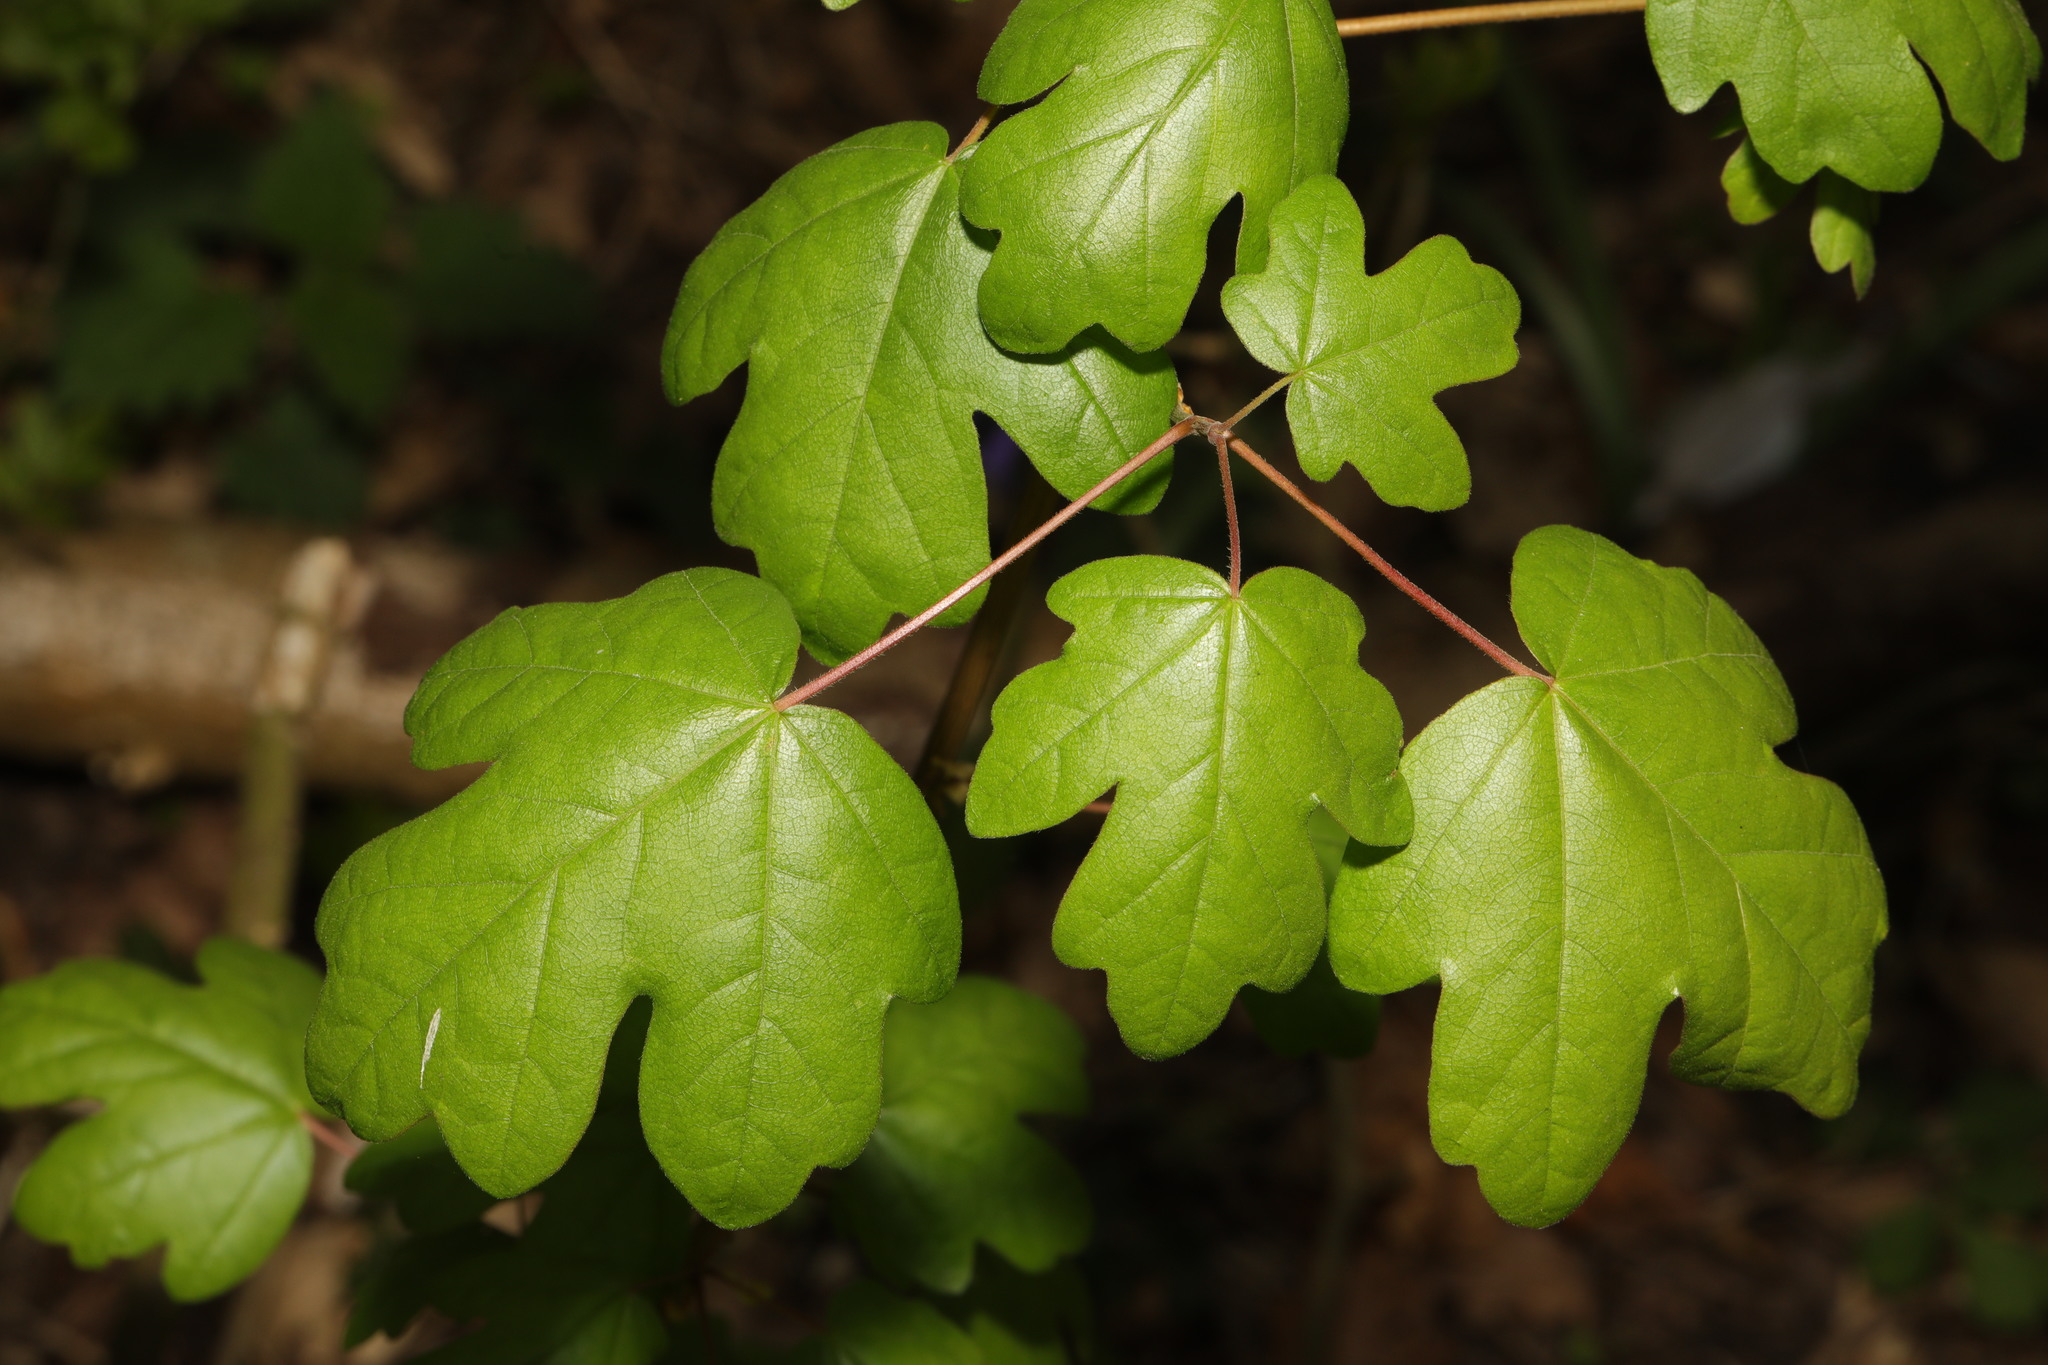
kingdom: Plantae
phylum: Tracheophyta
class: Magnoliopsida
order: Sapindales
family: Sapindaceae
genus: Acer
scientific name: Acer campestre
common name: Field maple
